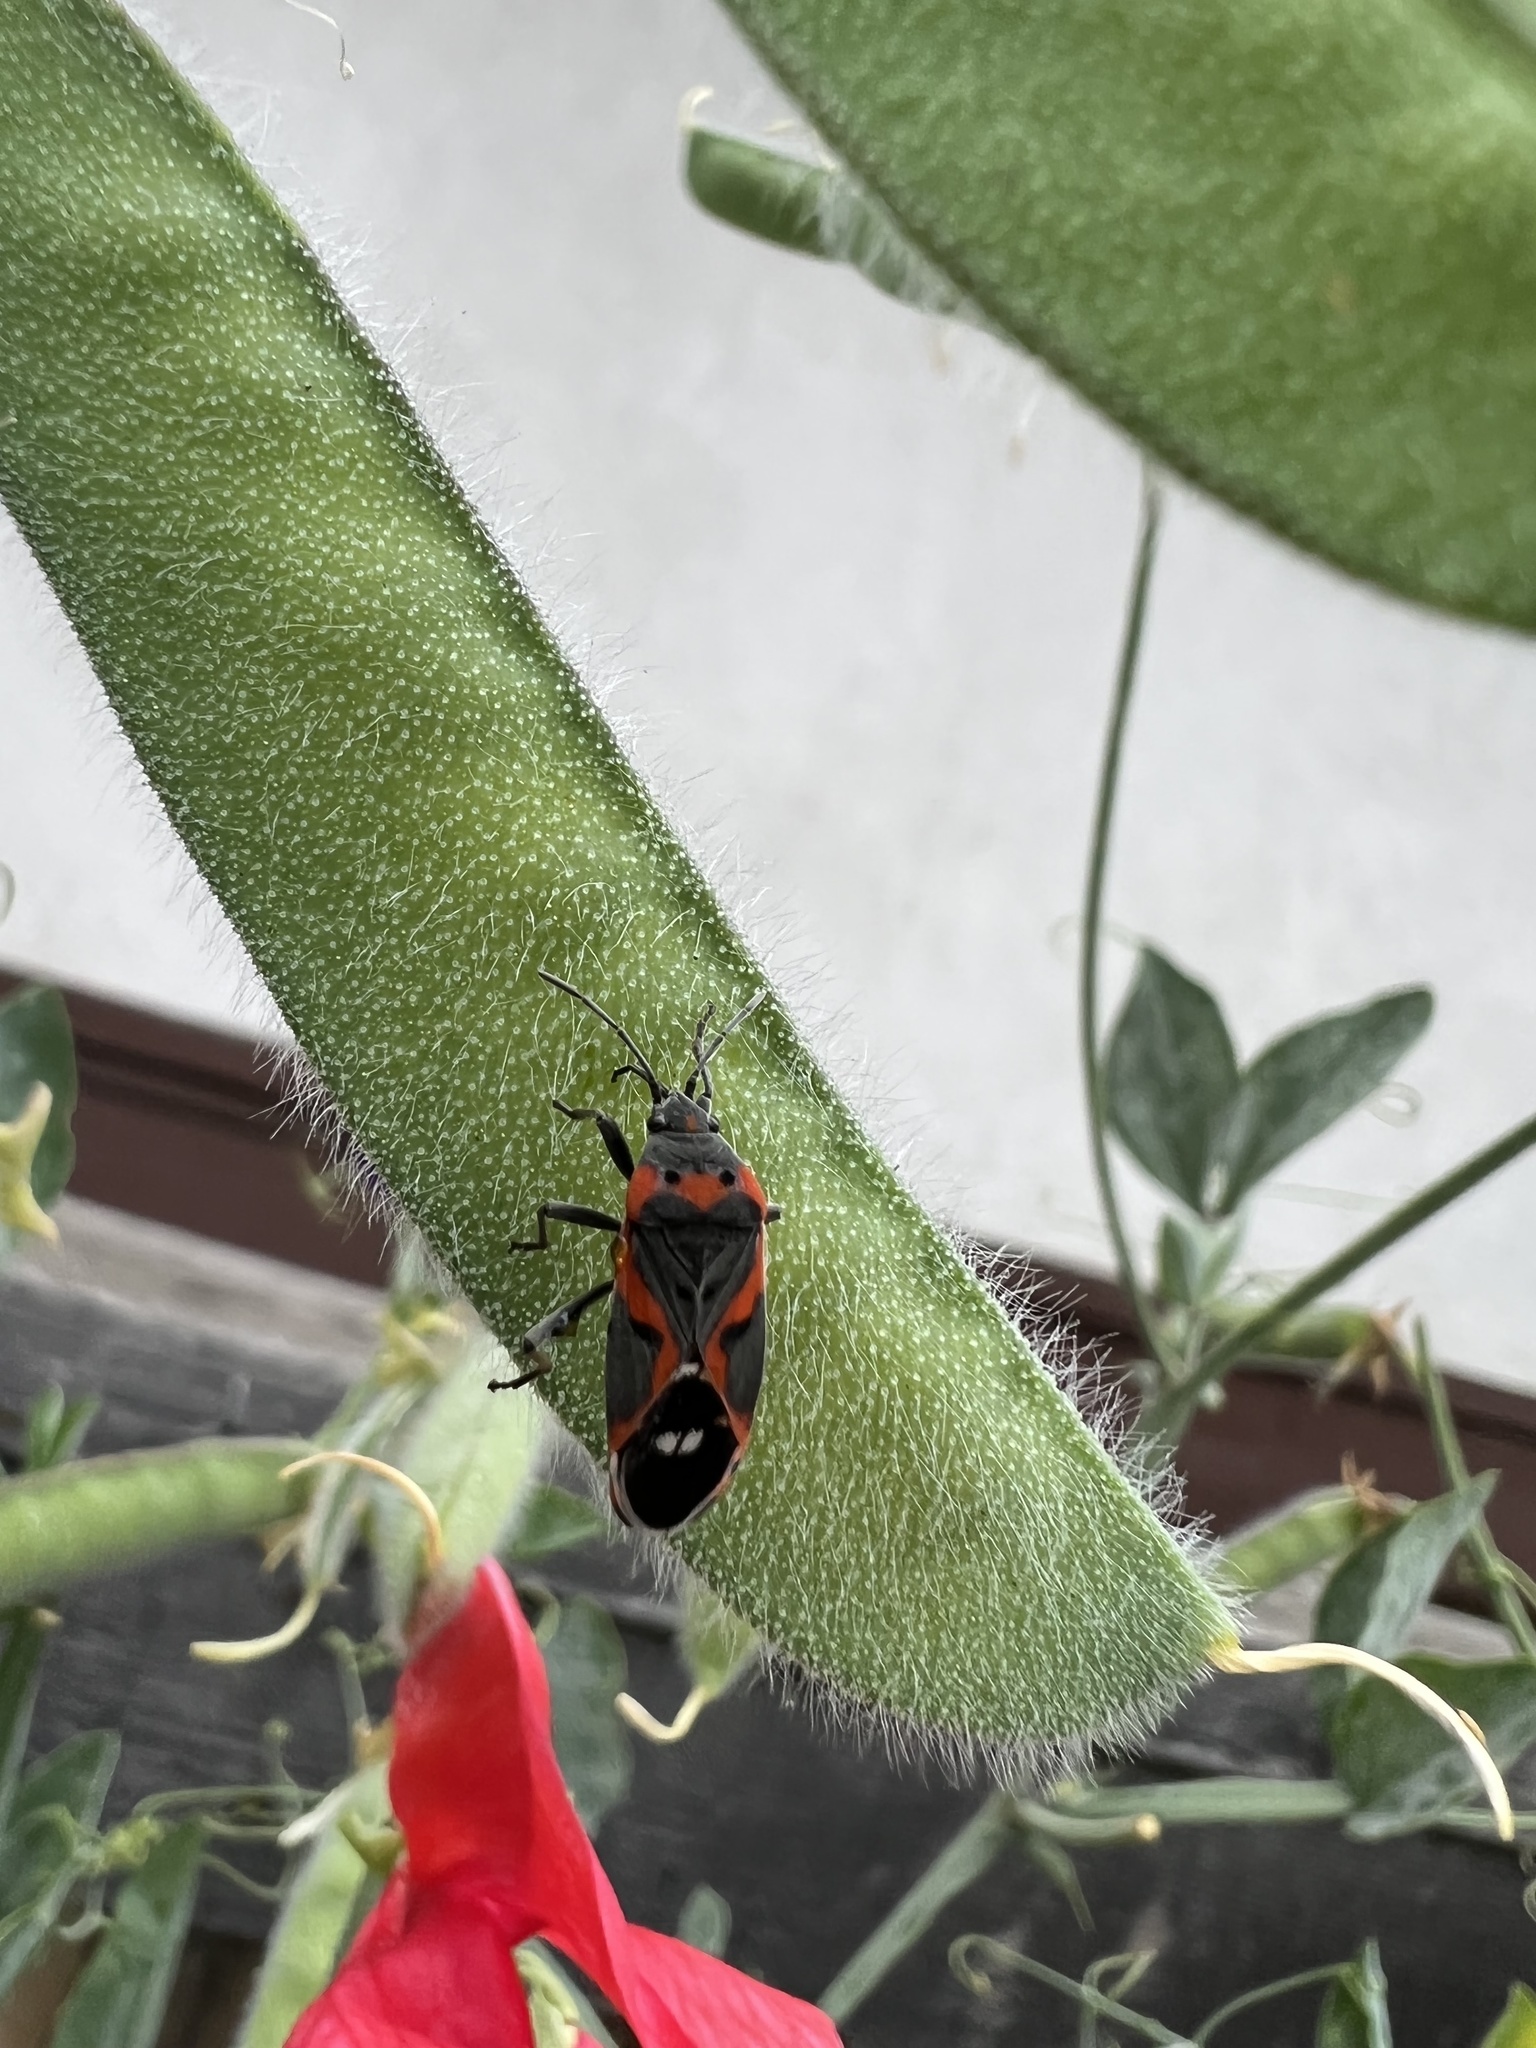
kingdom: Animalia
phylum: Arthropoda
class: Insecta
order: Hemiptera
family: Lygaeidae
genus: Lygaeus
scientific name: Lygaeus kalmii
